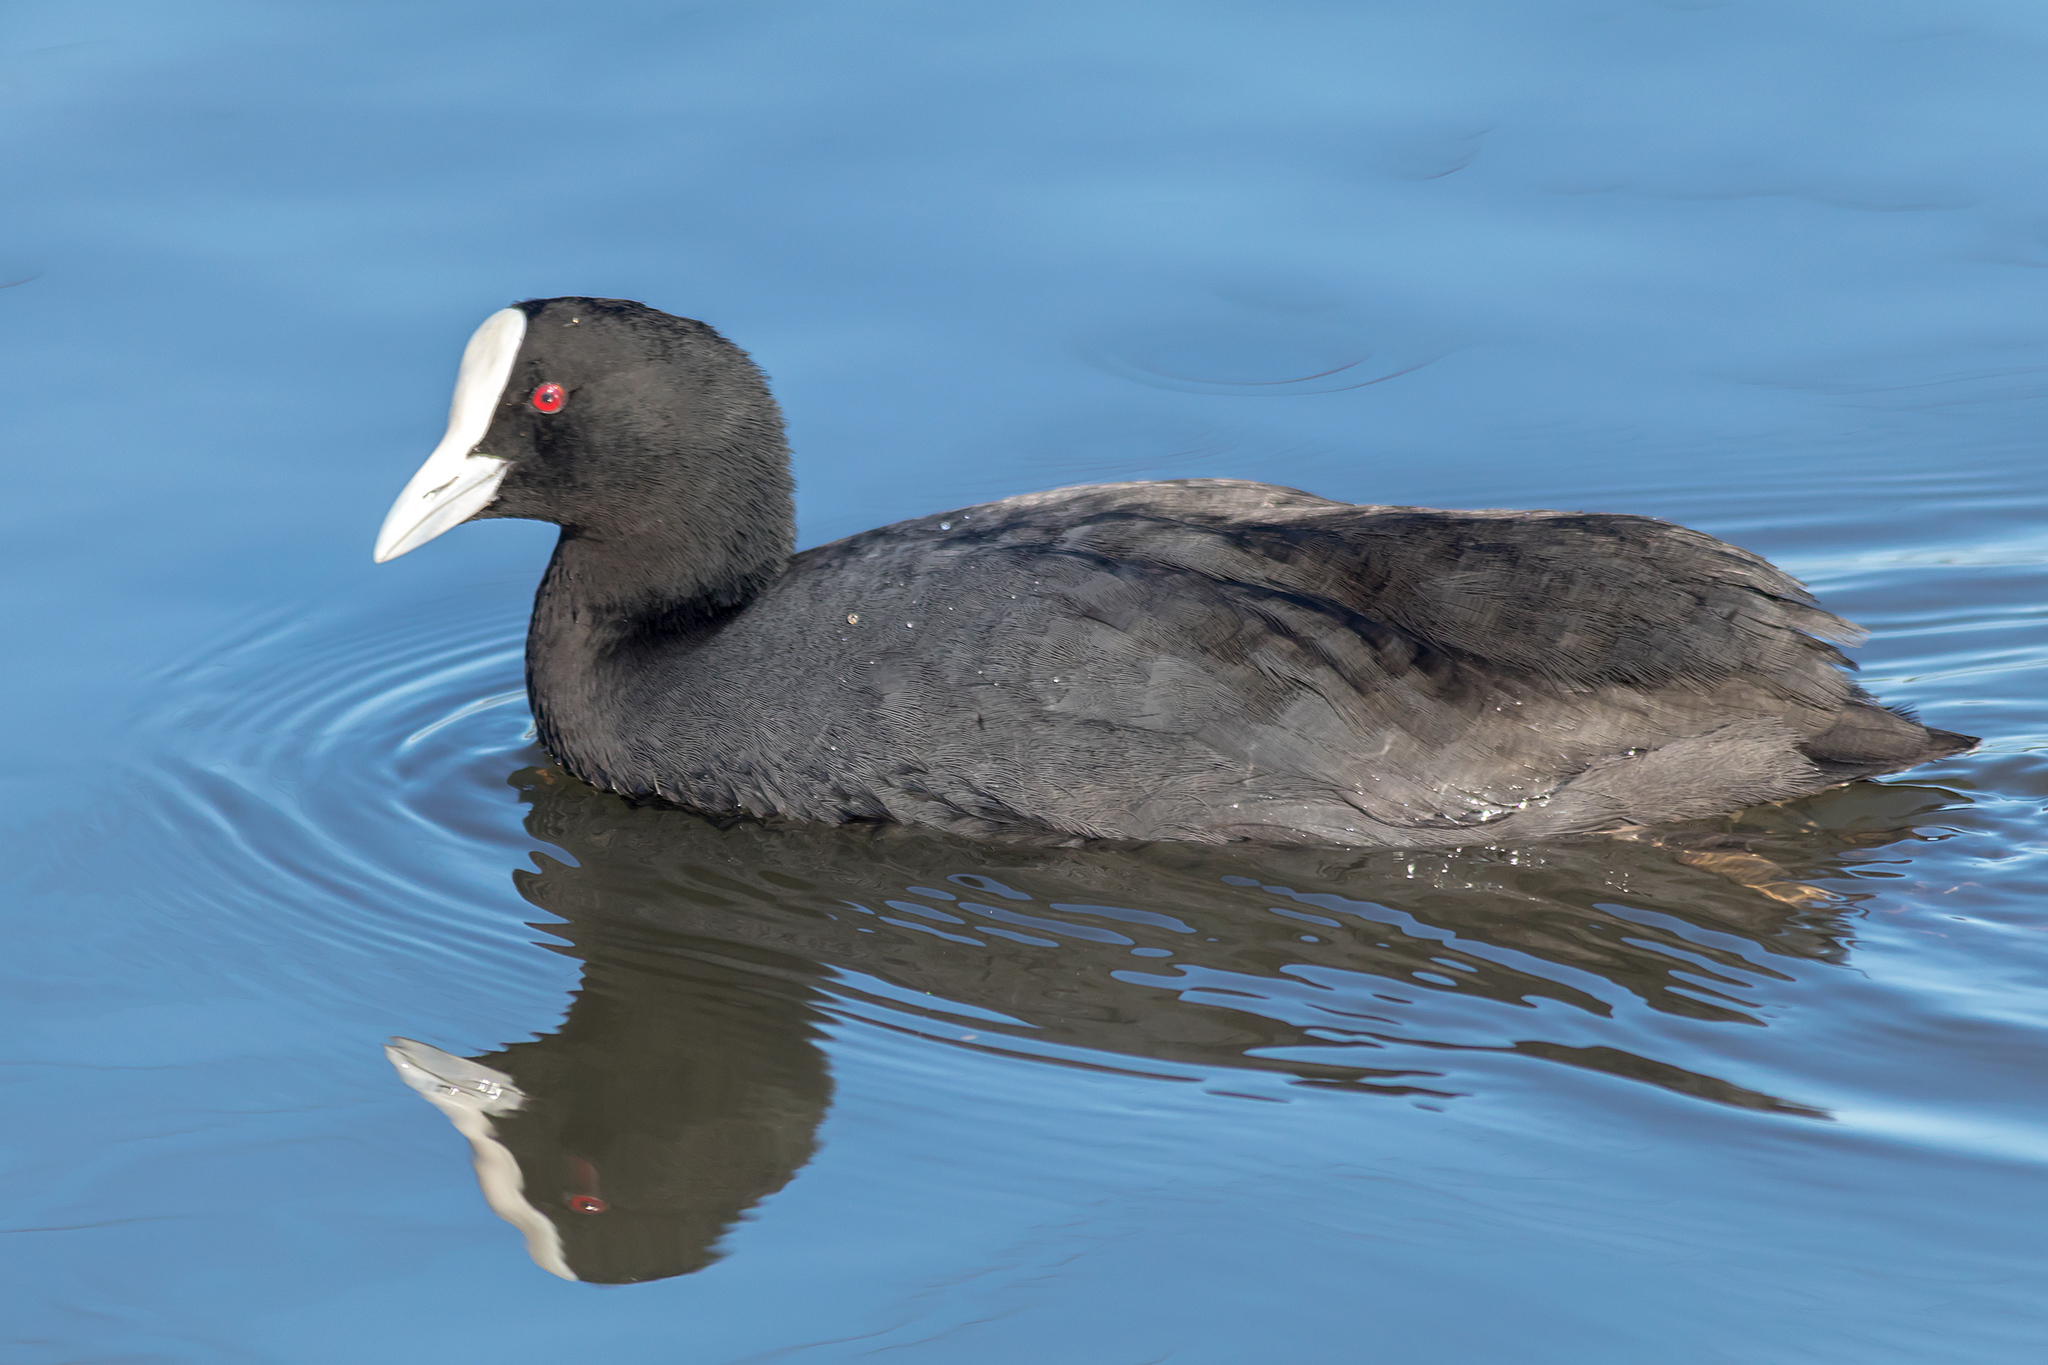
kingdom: Animalia
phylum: Chordata
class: Aves
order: Gruiformes
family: Rallidae
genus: Fulica
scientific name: Fulica atra
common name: Eurasian coot
